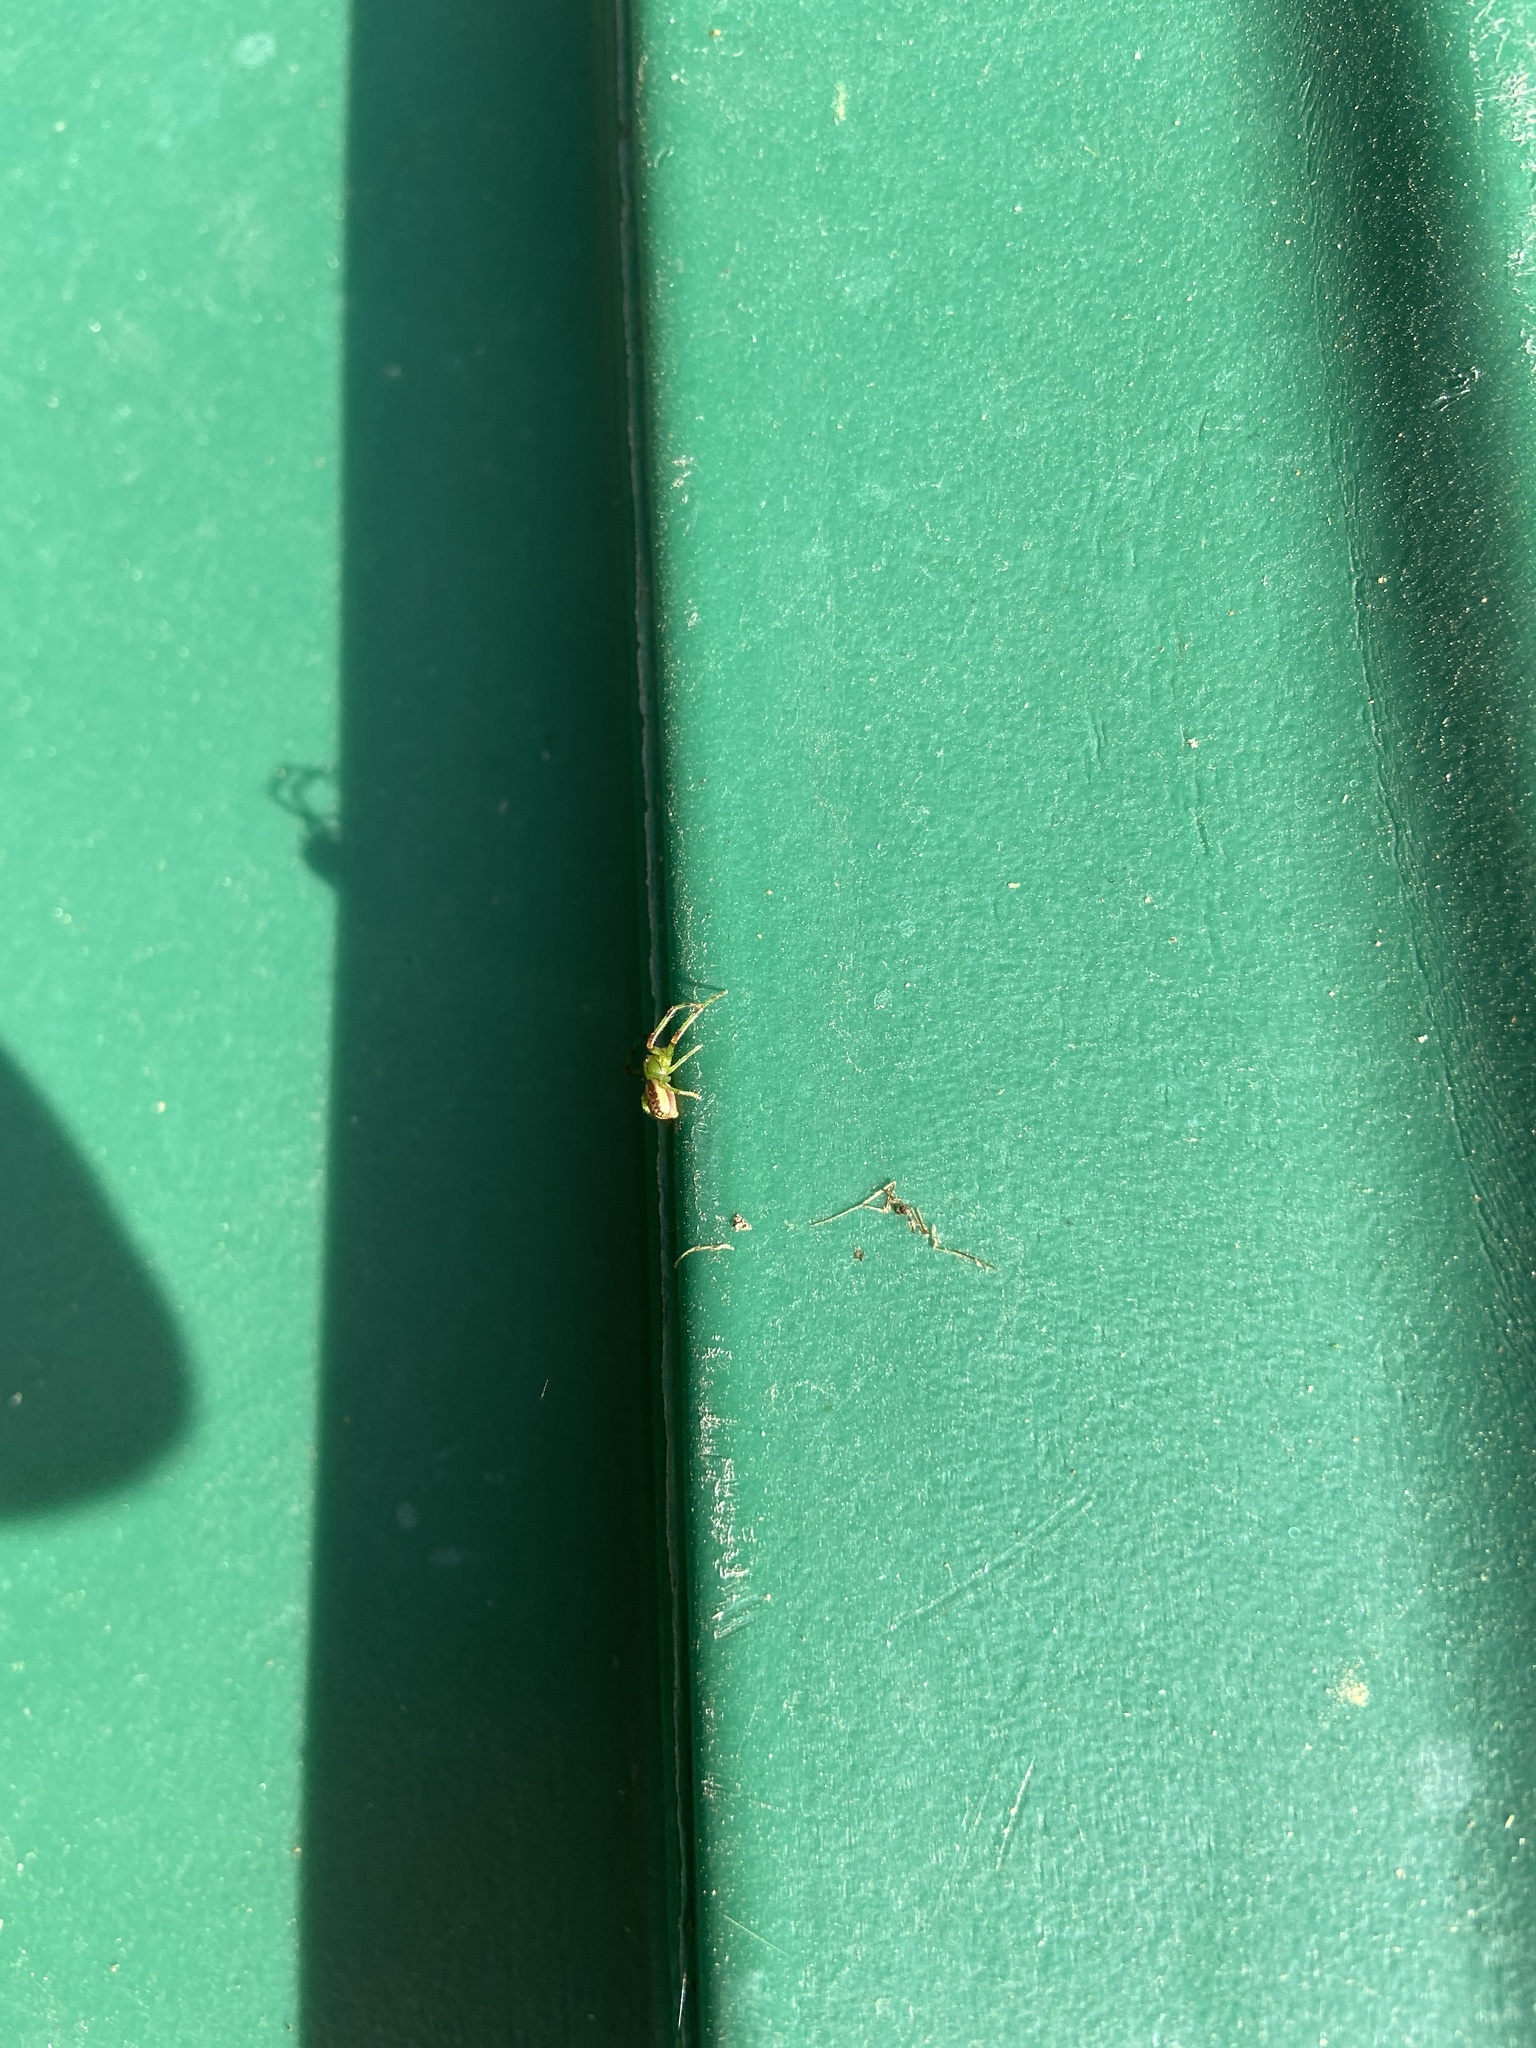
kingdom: Animalia
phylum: Arthropoda
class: Arachnida
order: Araneae
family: Thomisidae
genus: Diaea
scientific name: Diaea dorsata
